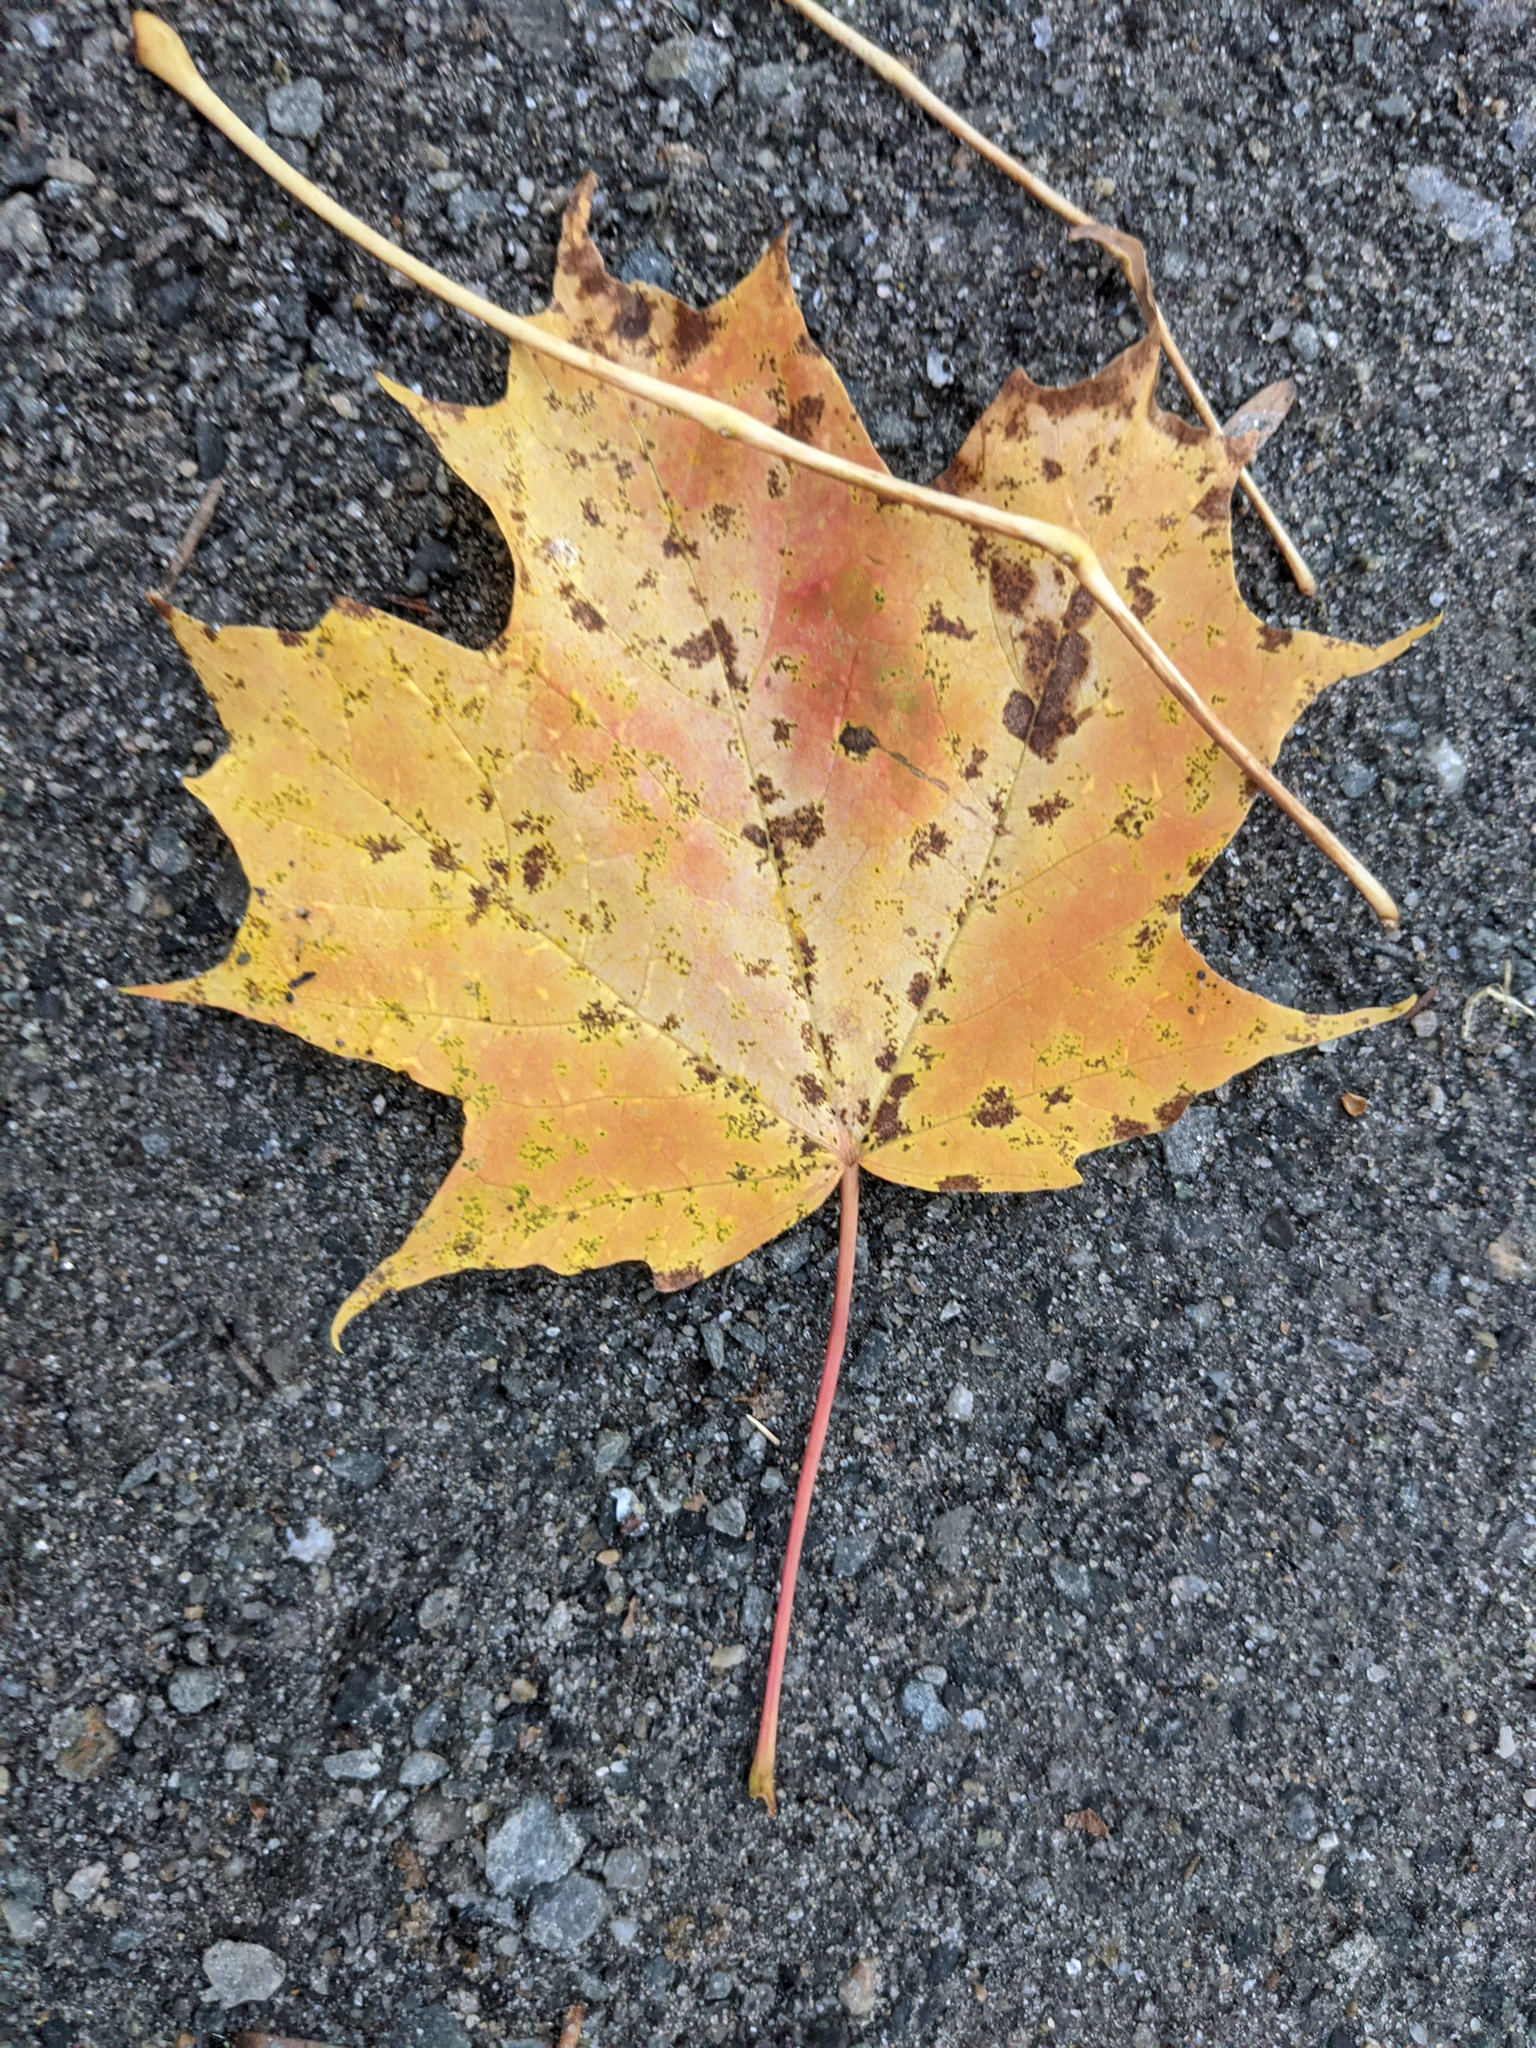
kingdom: Plantae
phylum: Tracheophyta
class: Magnoliopsida
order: Sapindales
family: Sapindaceae
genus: Acer
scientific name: Acer saccharum
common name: Sugar maple
